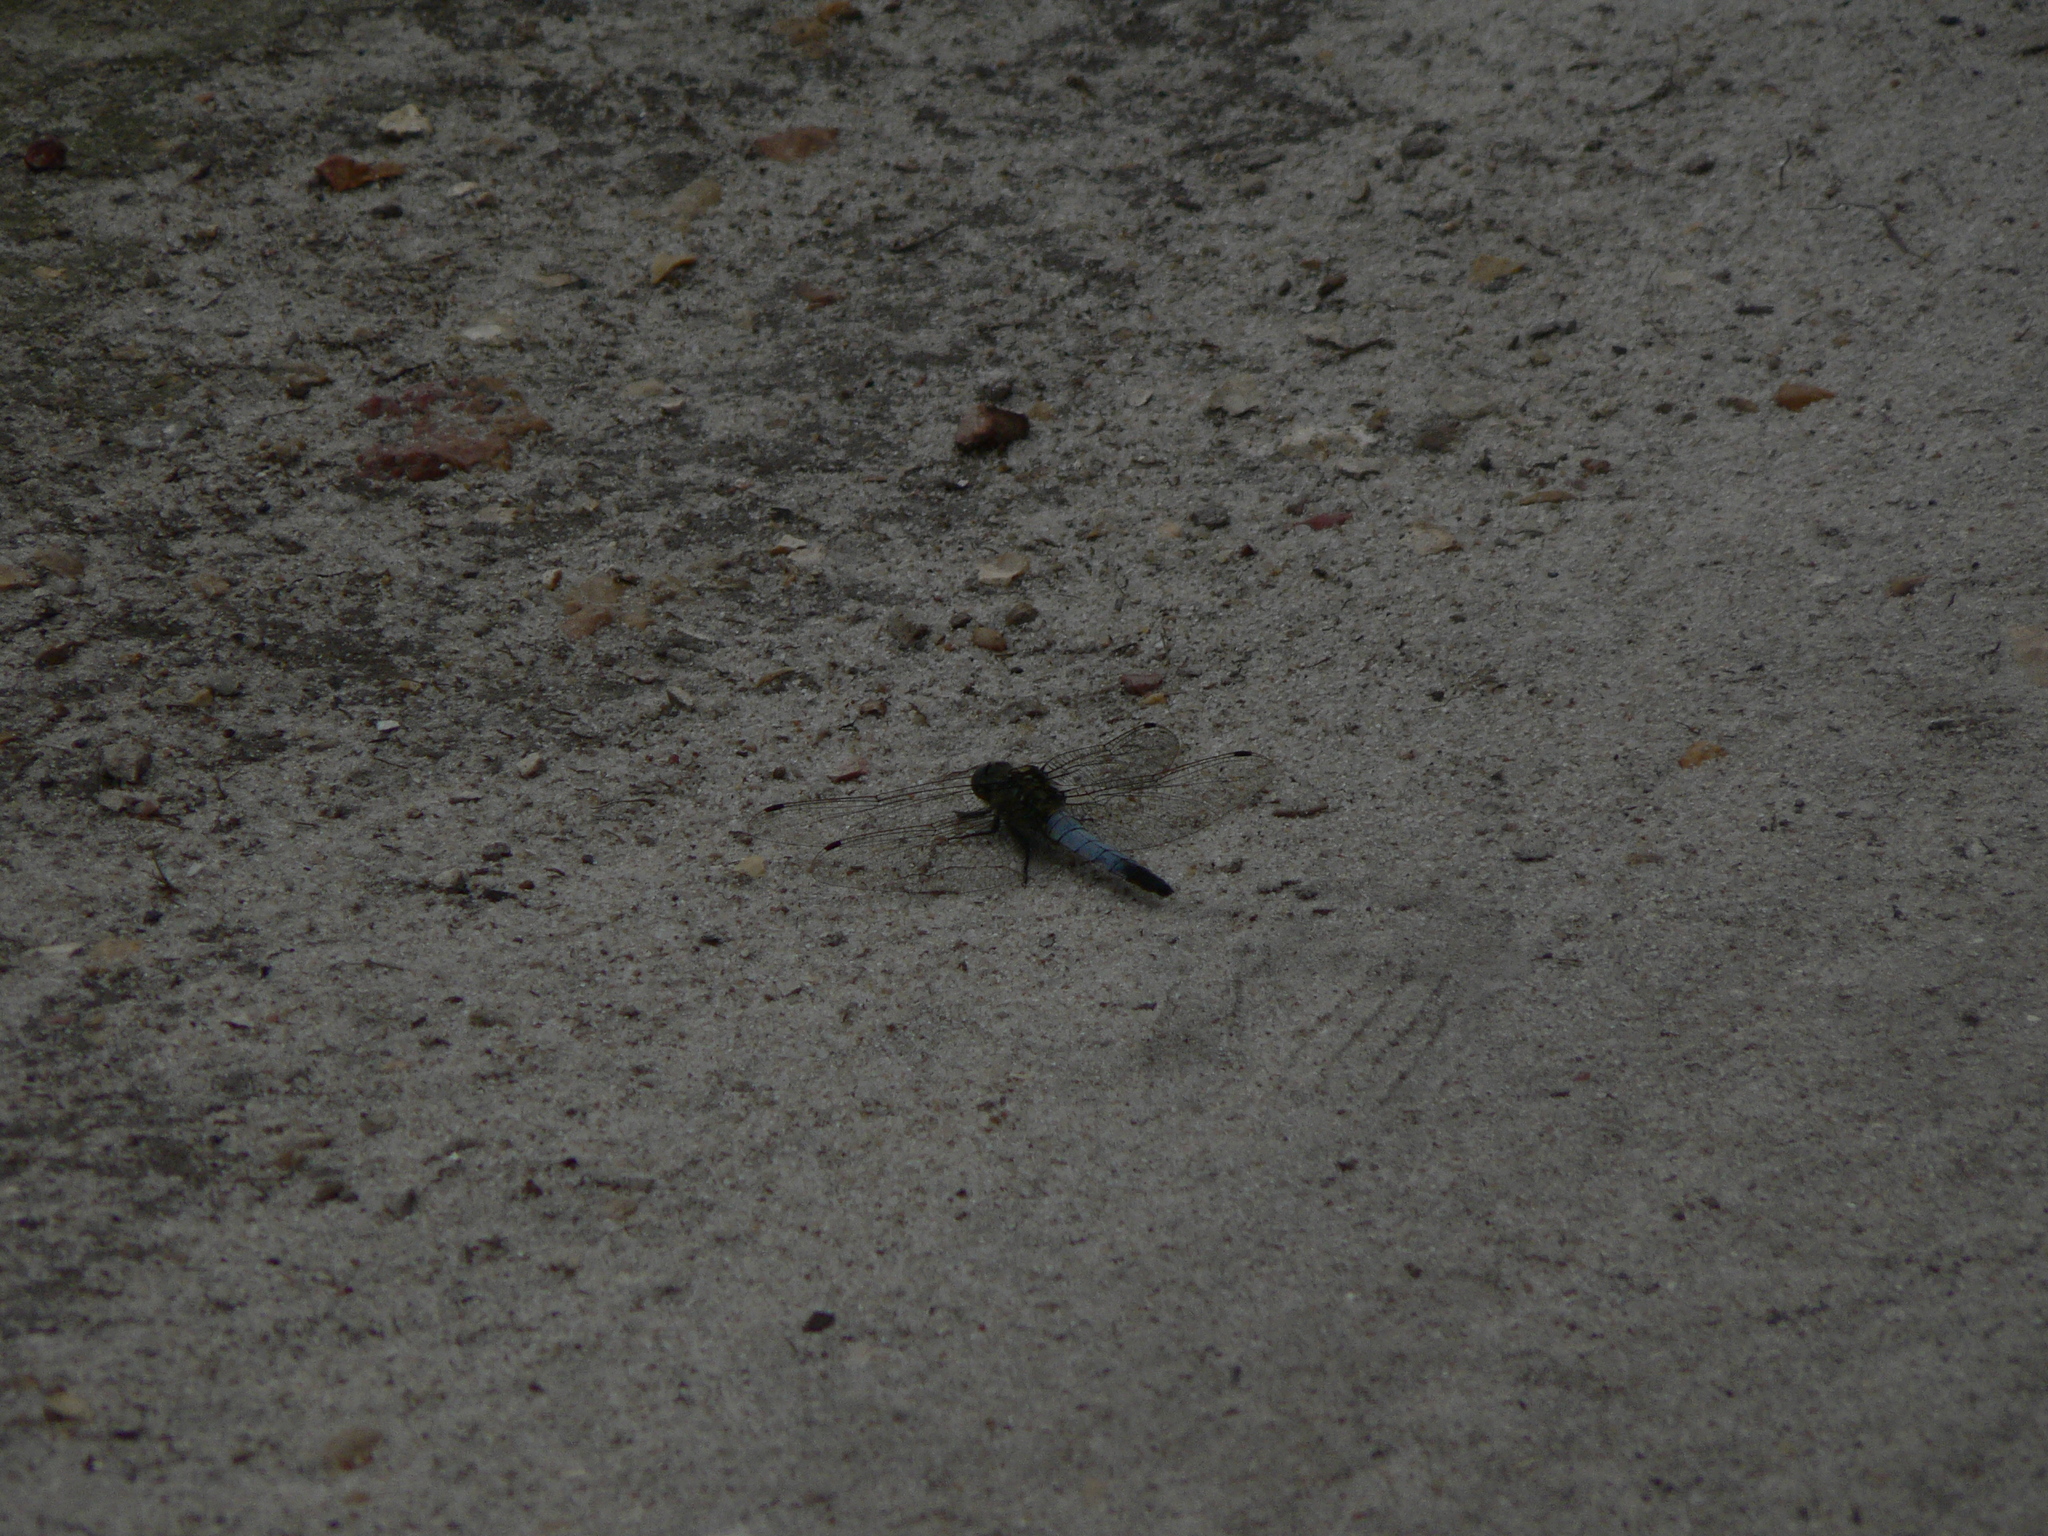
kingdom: Animalia
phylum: Arthropoda
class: Insecta
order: Odonata
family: Libellulidae
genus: Orthetrum
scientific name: Orthetrum cancellatum
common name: Black-tailed skimmer
